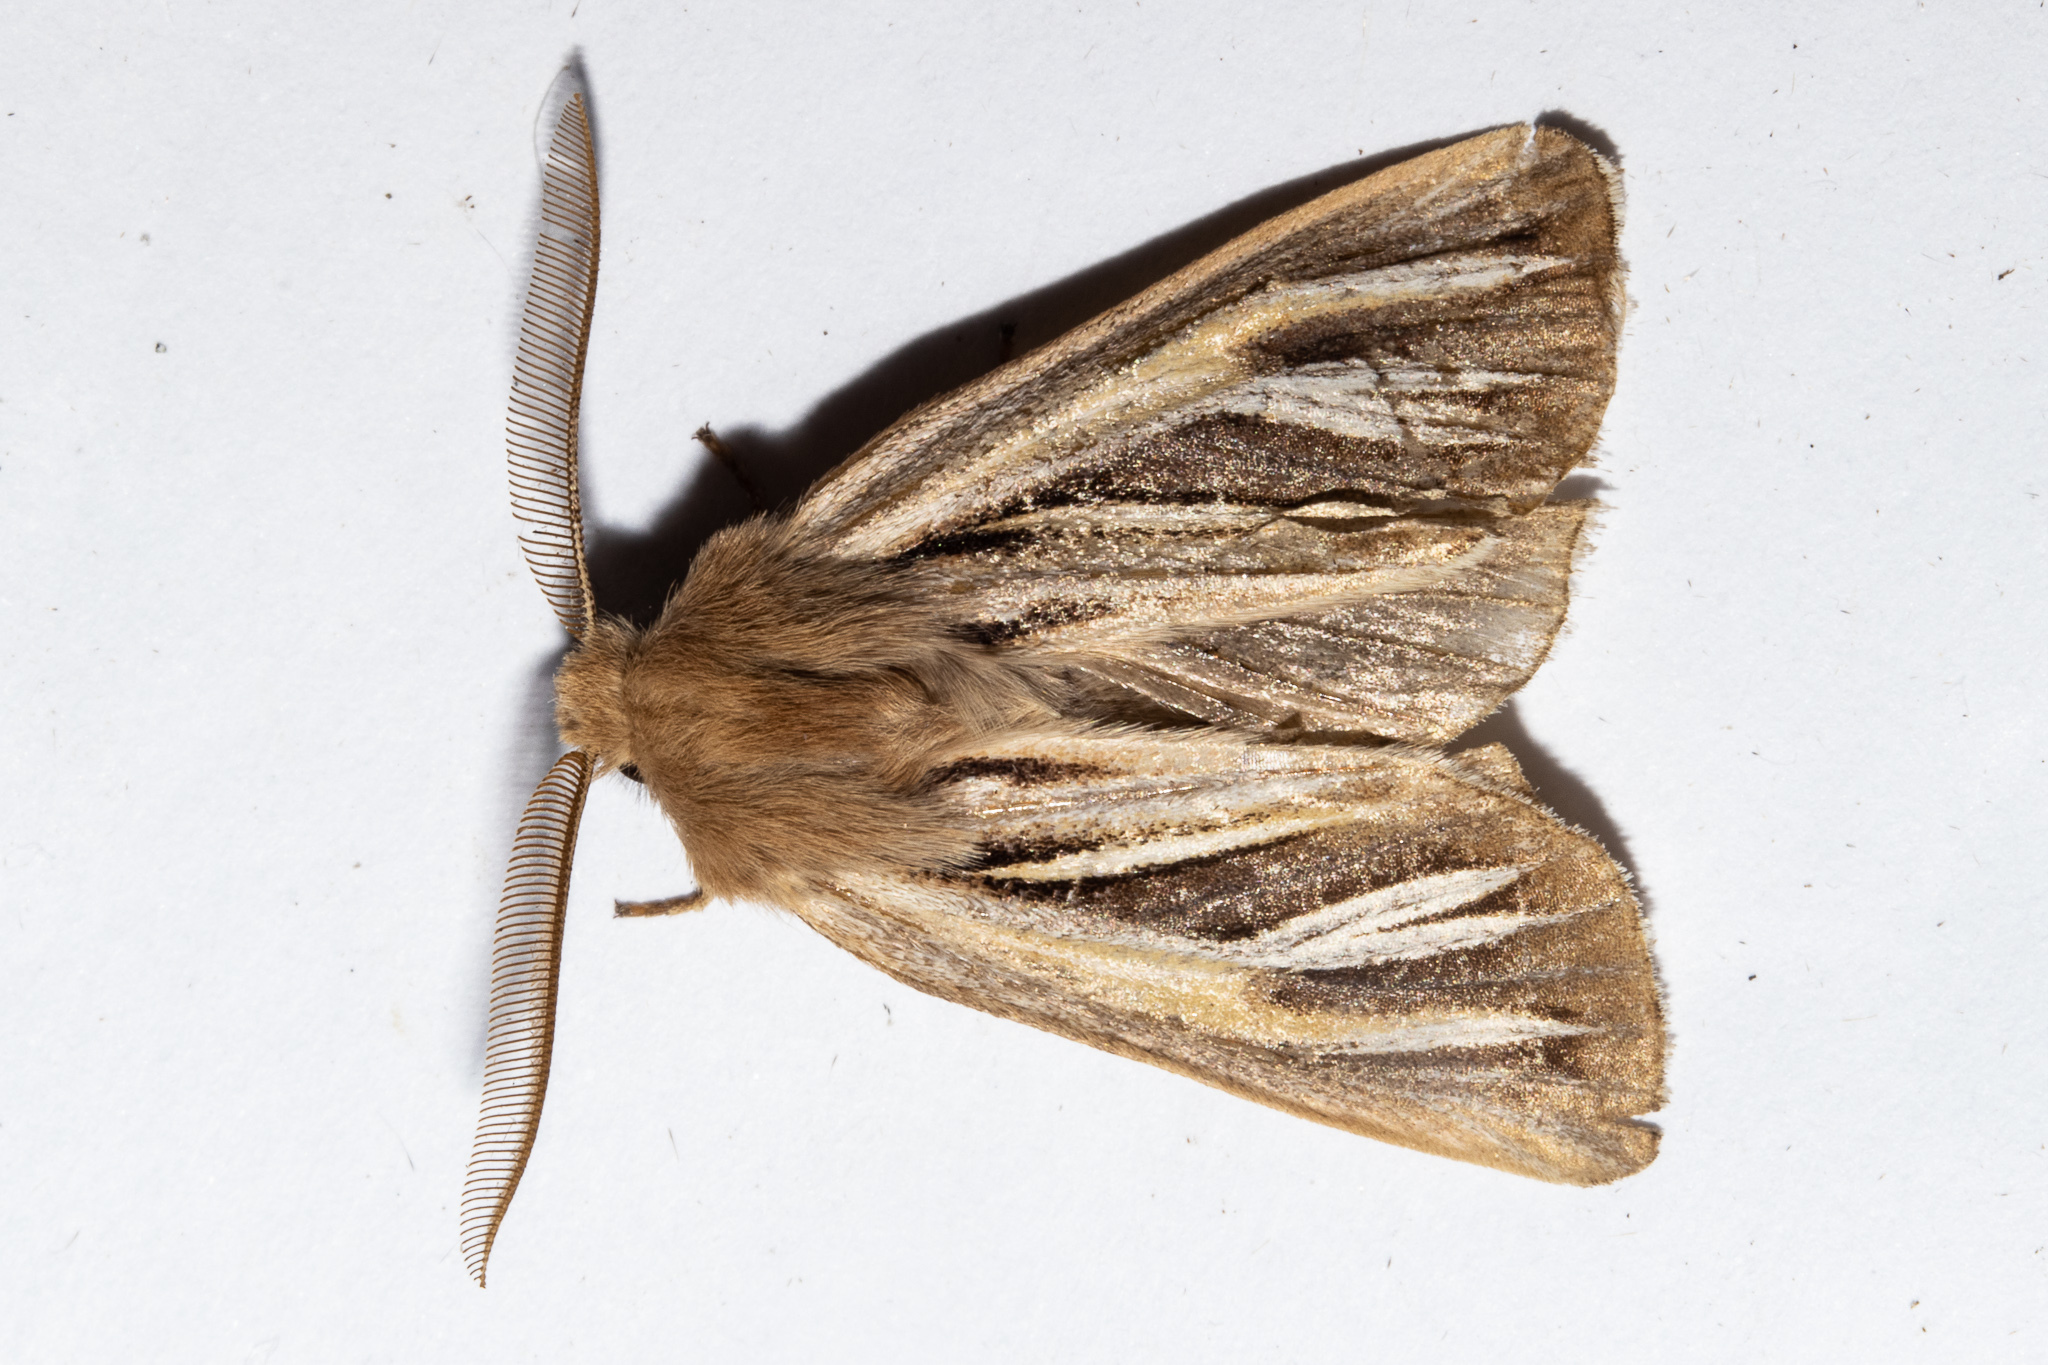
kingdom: Animalia
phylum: Arthropoda
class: Insecta
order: Lepidoptera
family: Noctuidae
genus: Ichneutica
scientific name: Ichneutica caraunias
